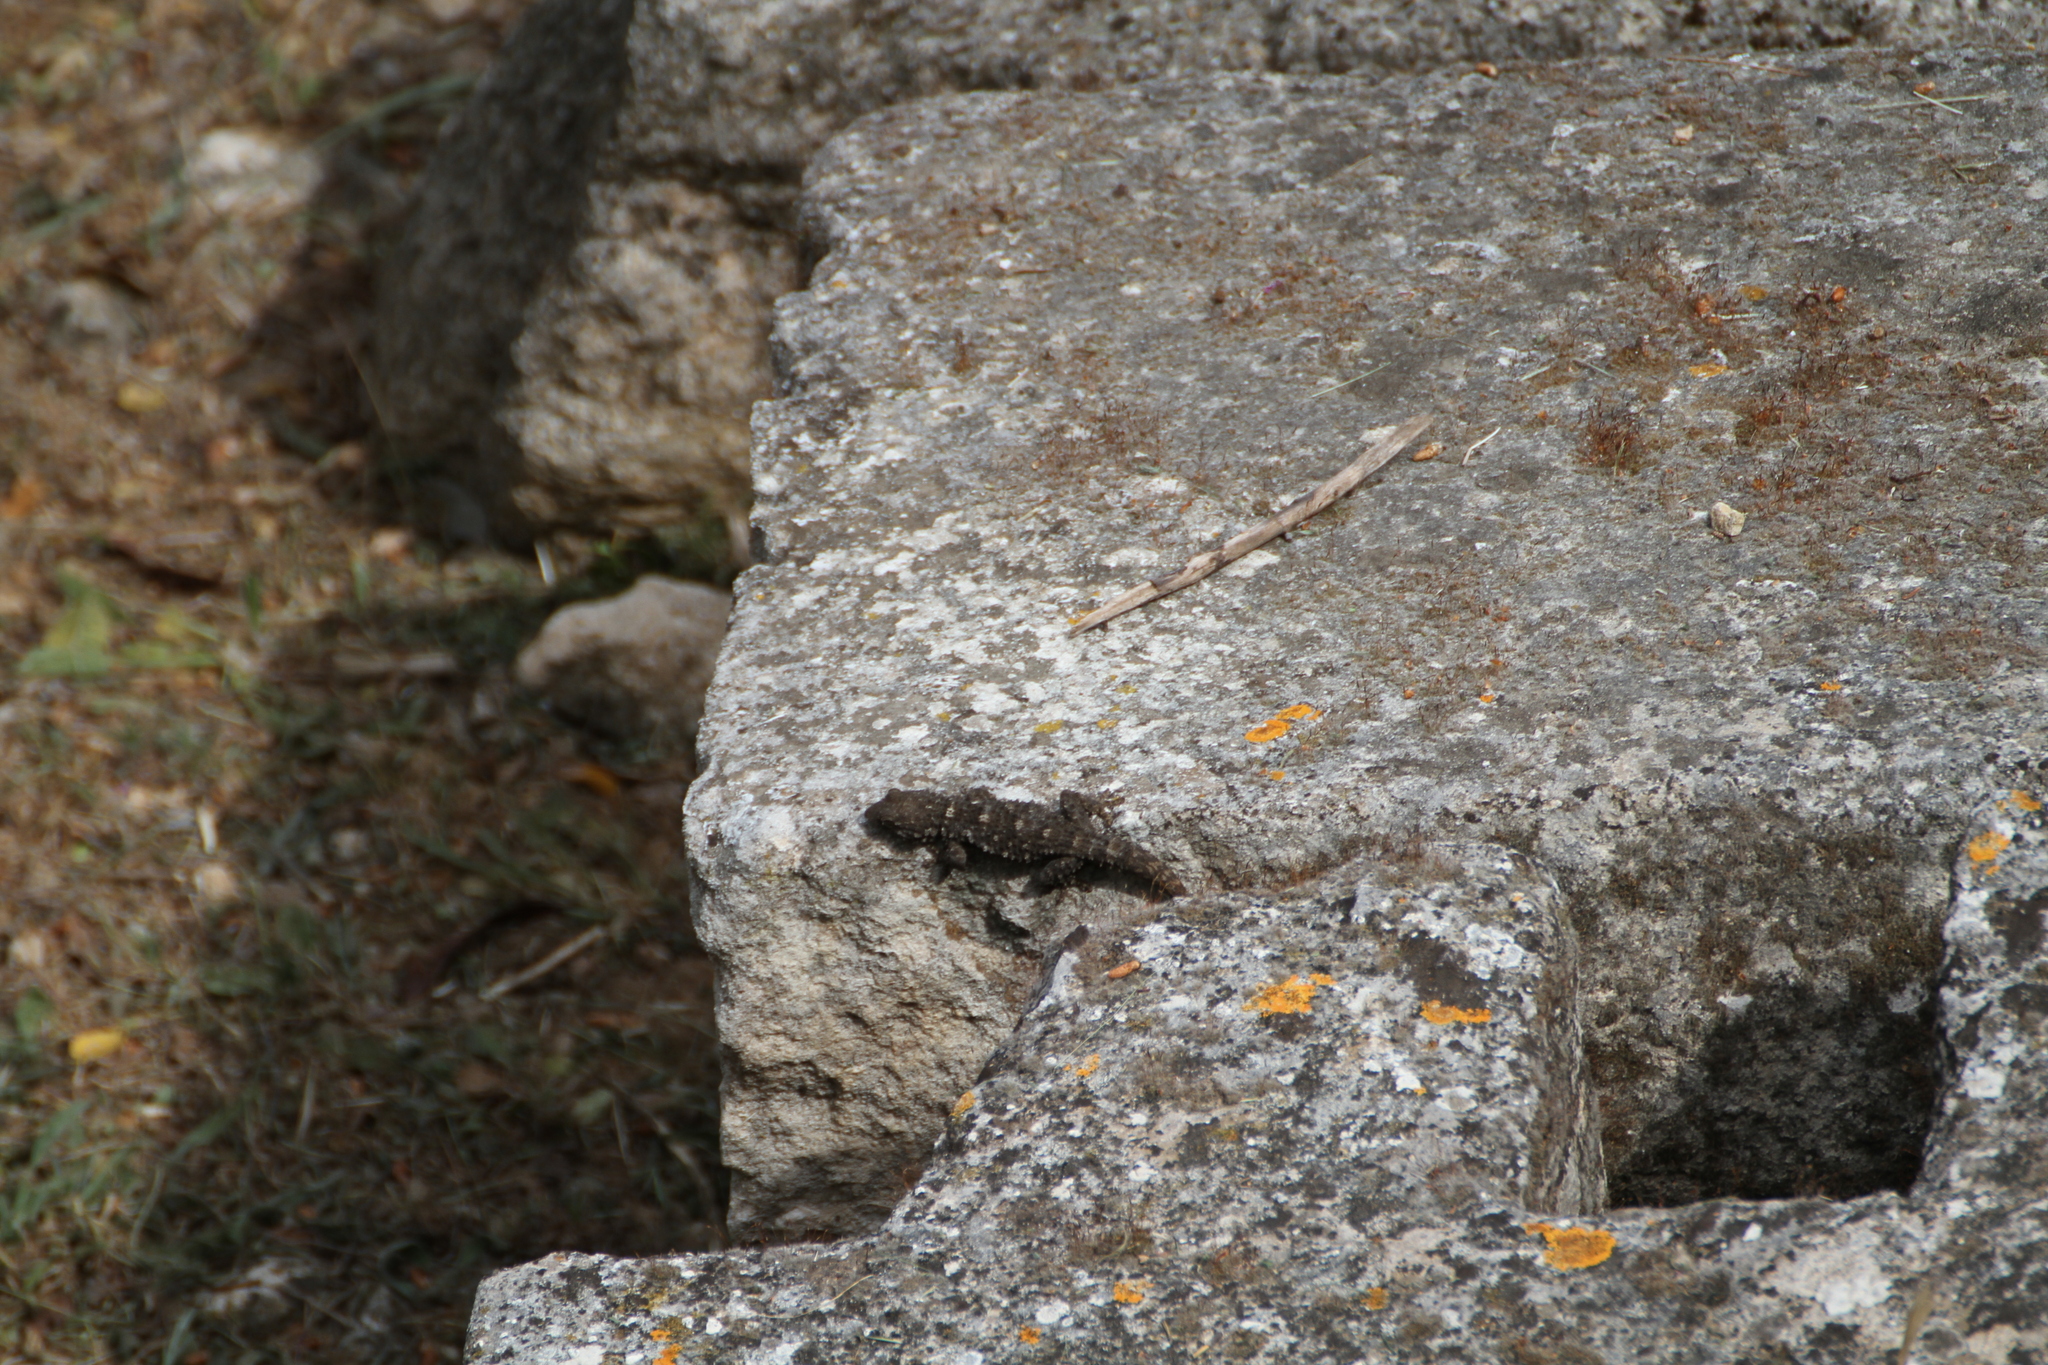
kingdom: Animalia
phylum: Chordata
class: Squamata
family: Phyllodactylidae
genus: Tarentola
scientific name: Tarentola mauritanica
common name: Moorish gecko
